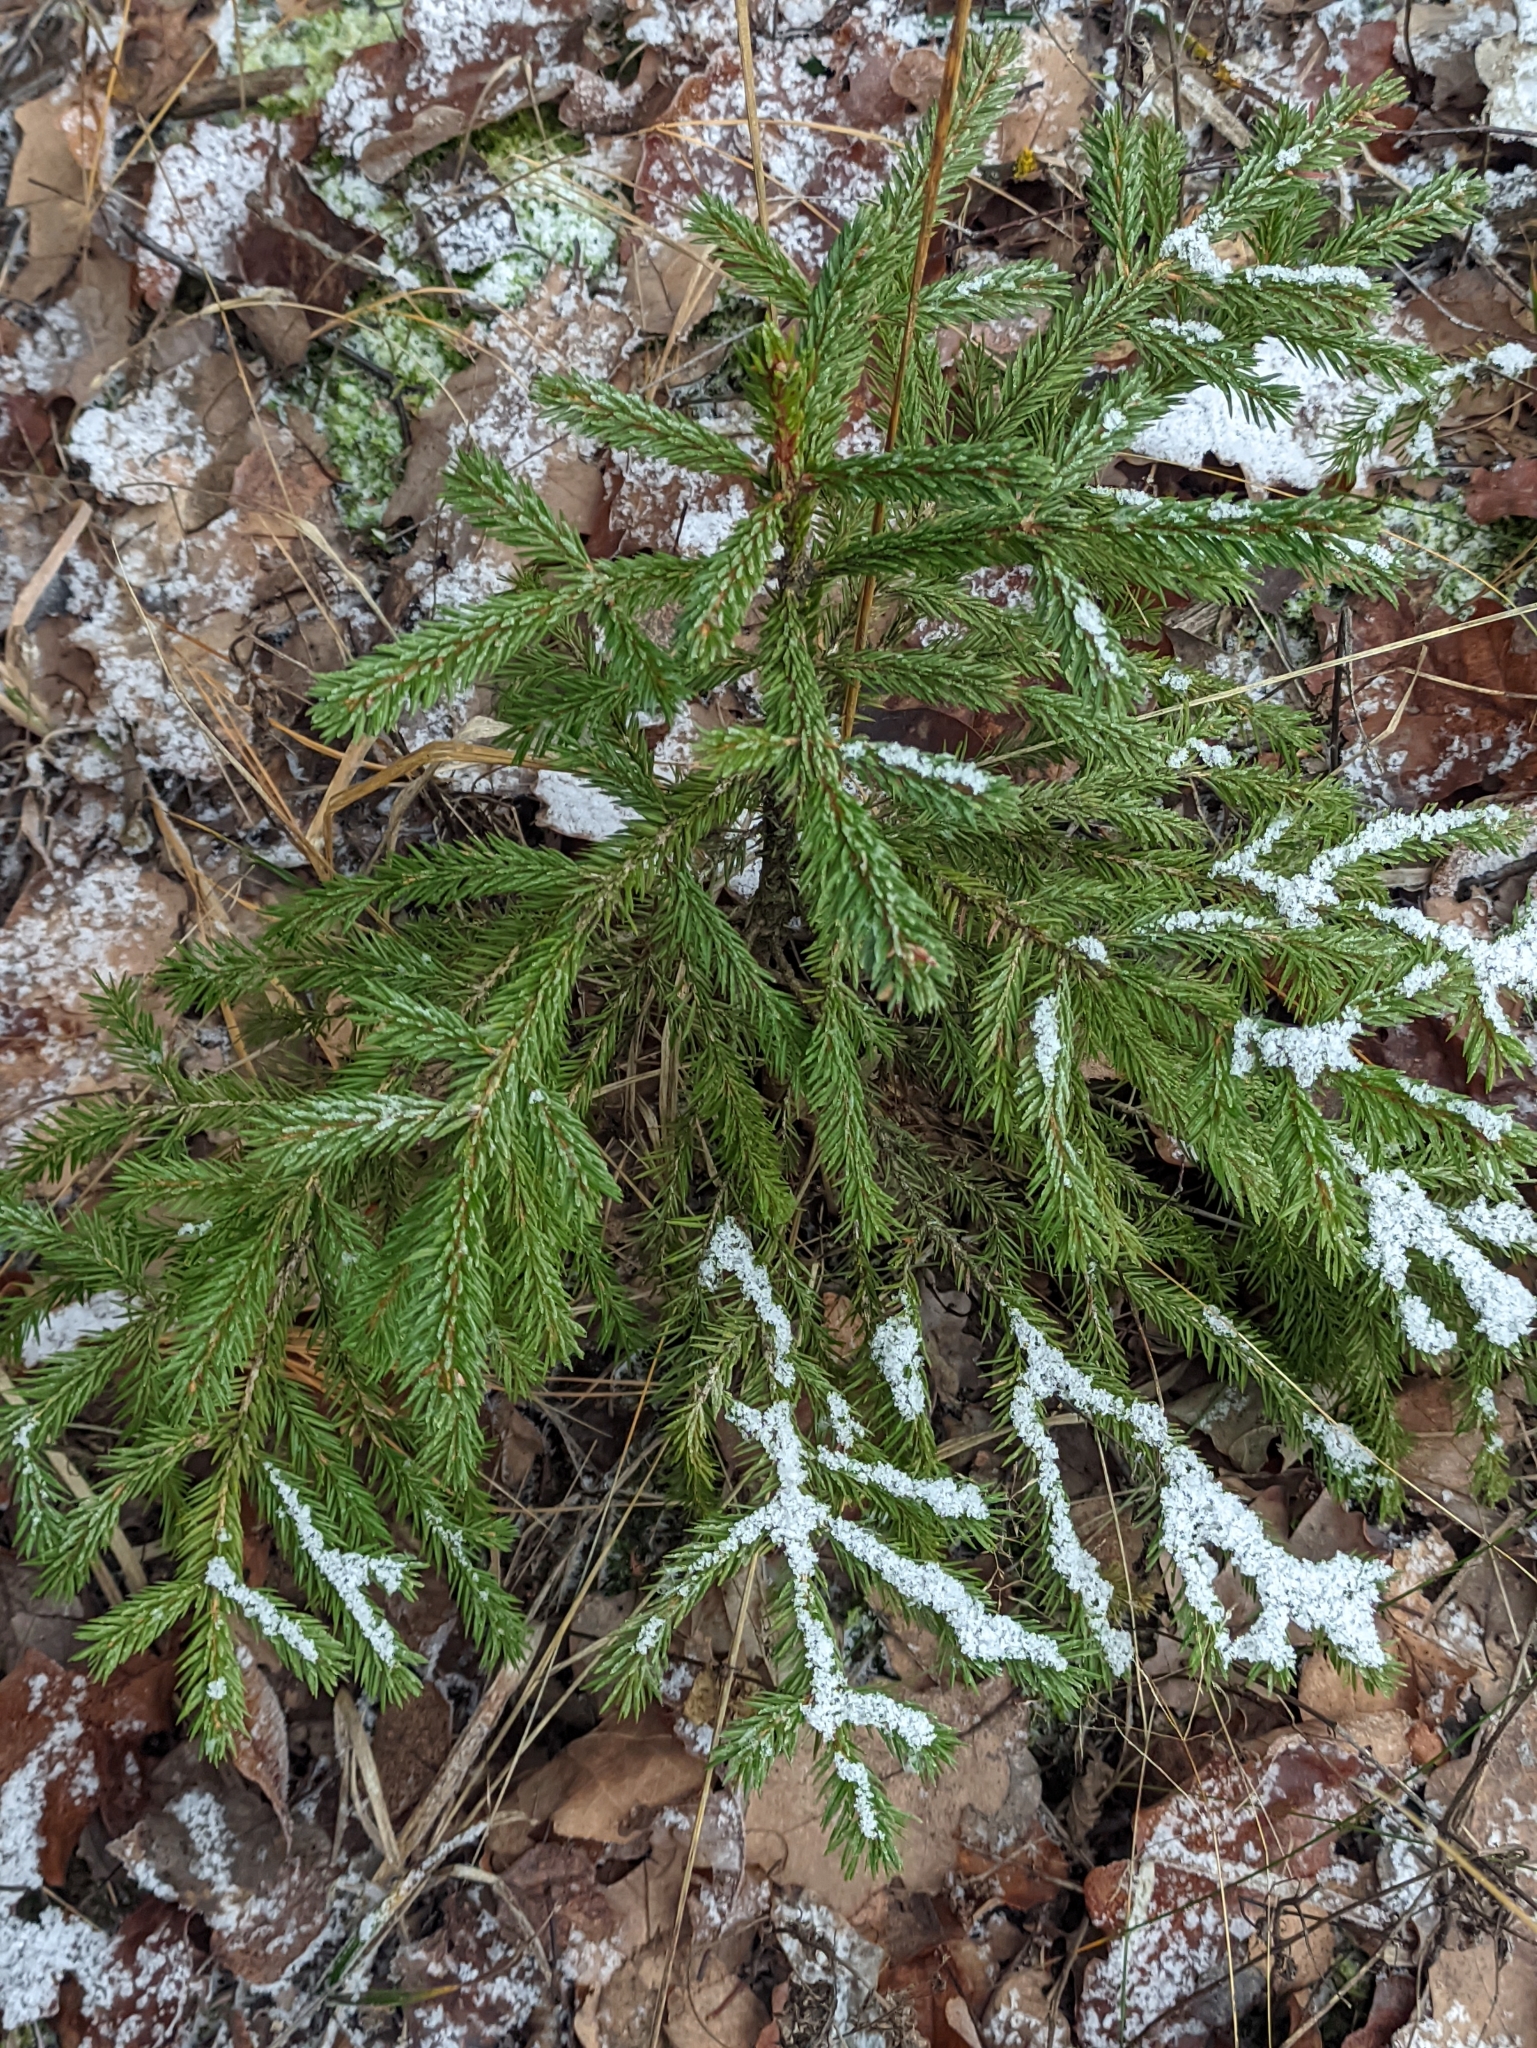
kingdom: Plantae
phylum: Tracheophyta
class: Pinopsida
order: Pinales
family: Pinaceae
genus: Picea
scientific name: Picea abies
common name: Norway spruce
